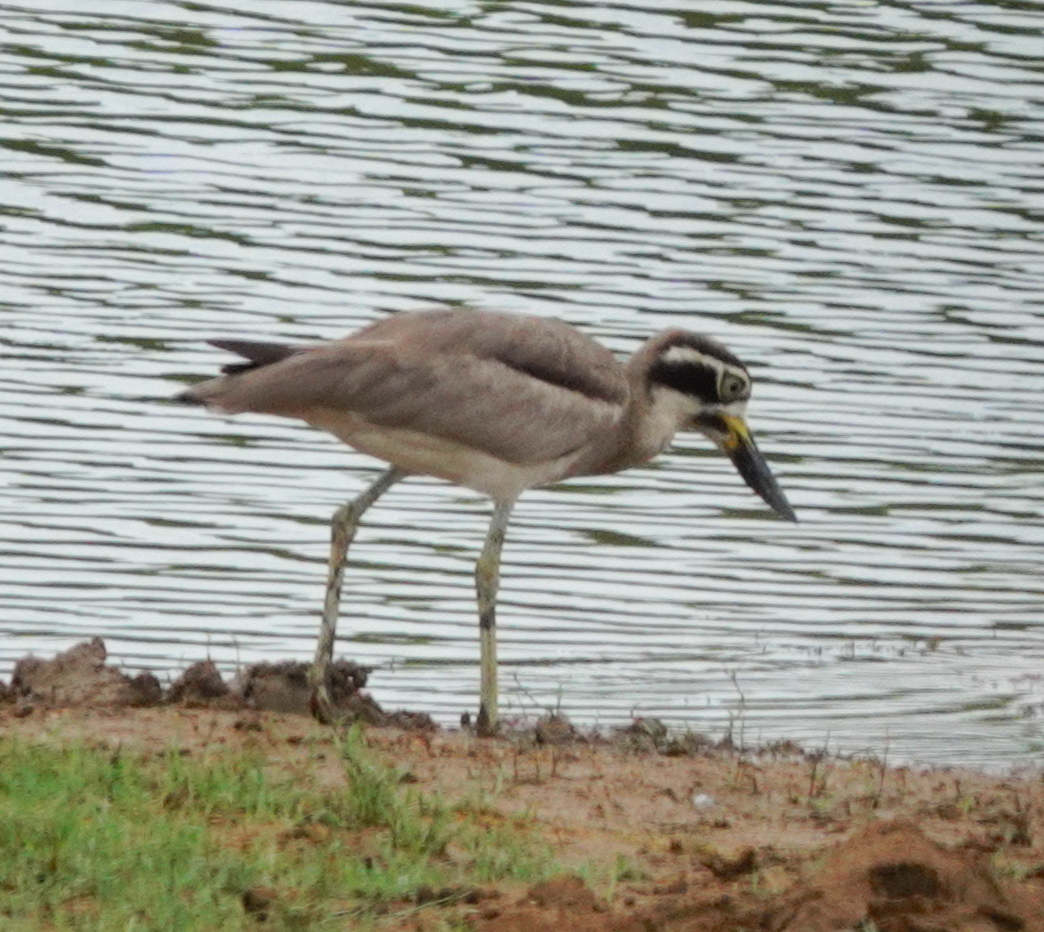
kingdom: Animalia
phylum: Chordata
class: Aves
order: Charadriiformes
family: Burhinidae
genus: Esacus
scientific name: Esacus recurvirostris
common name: Great stone-curlew
